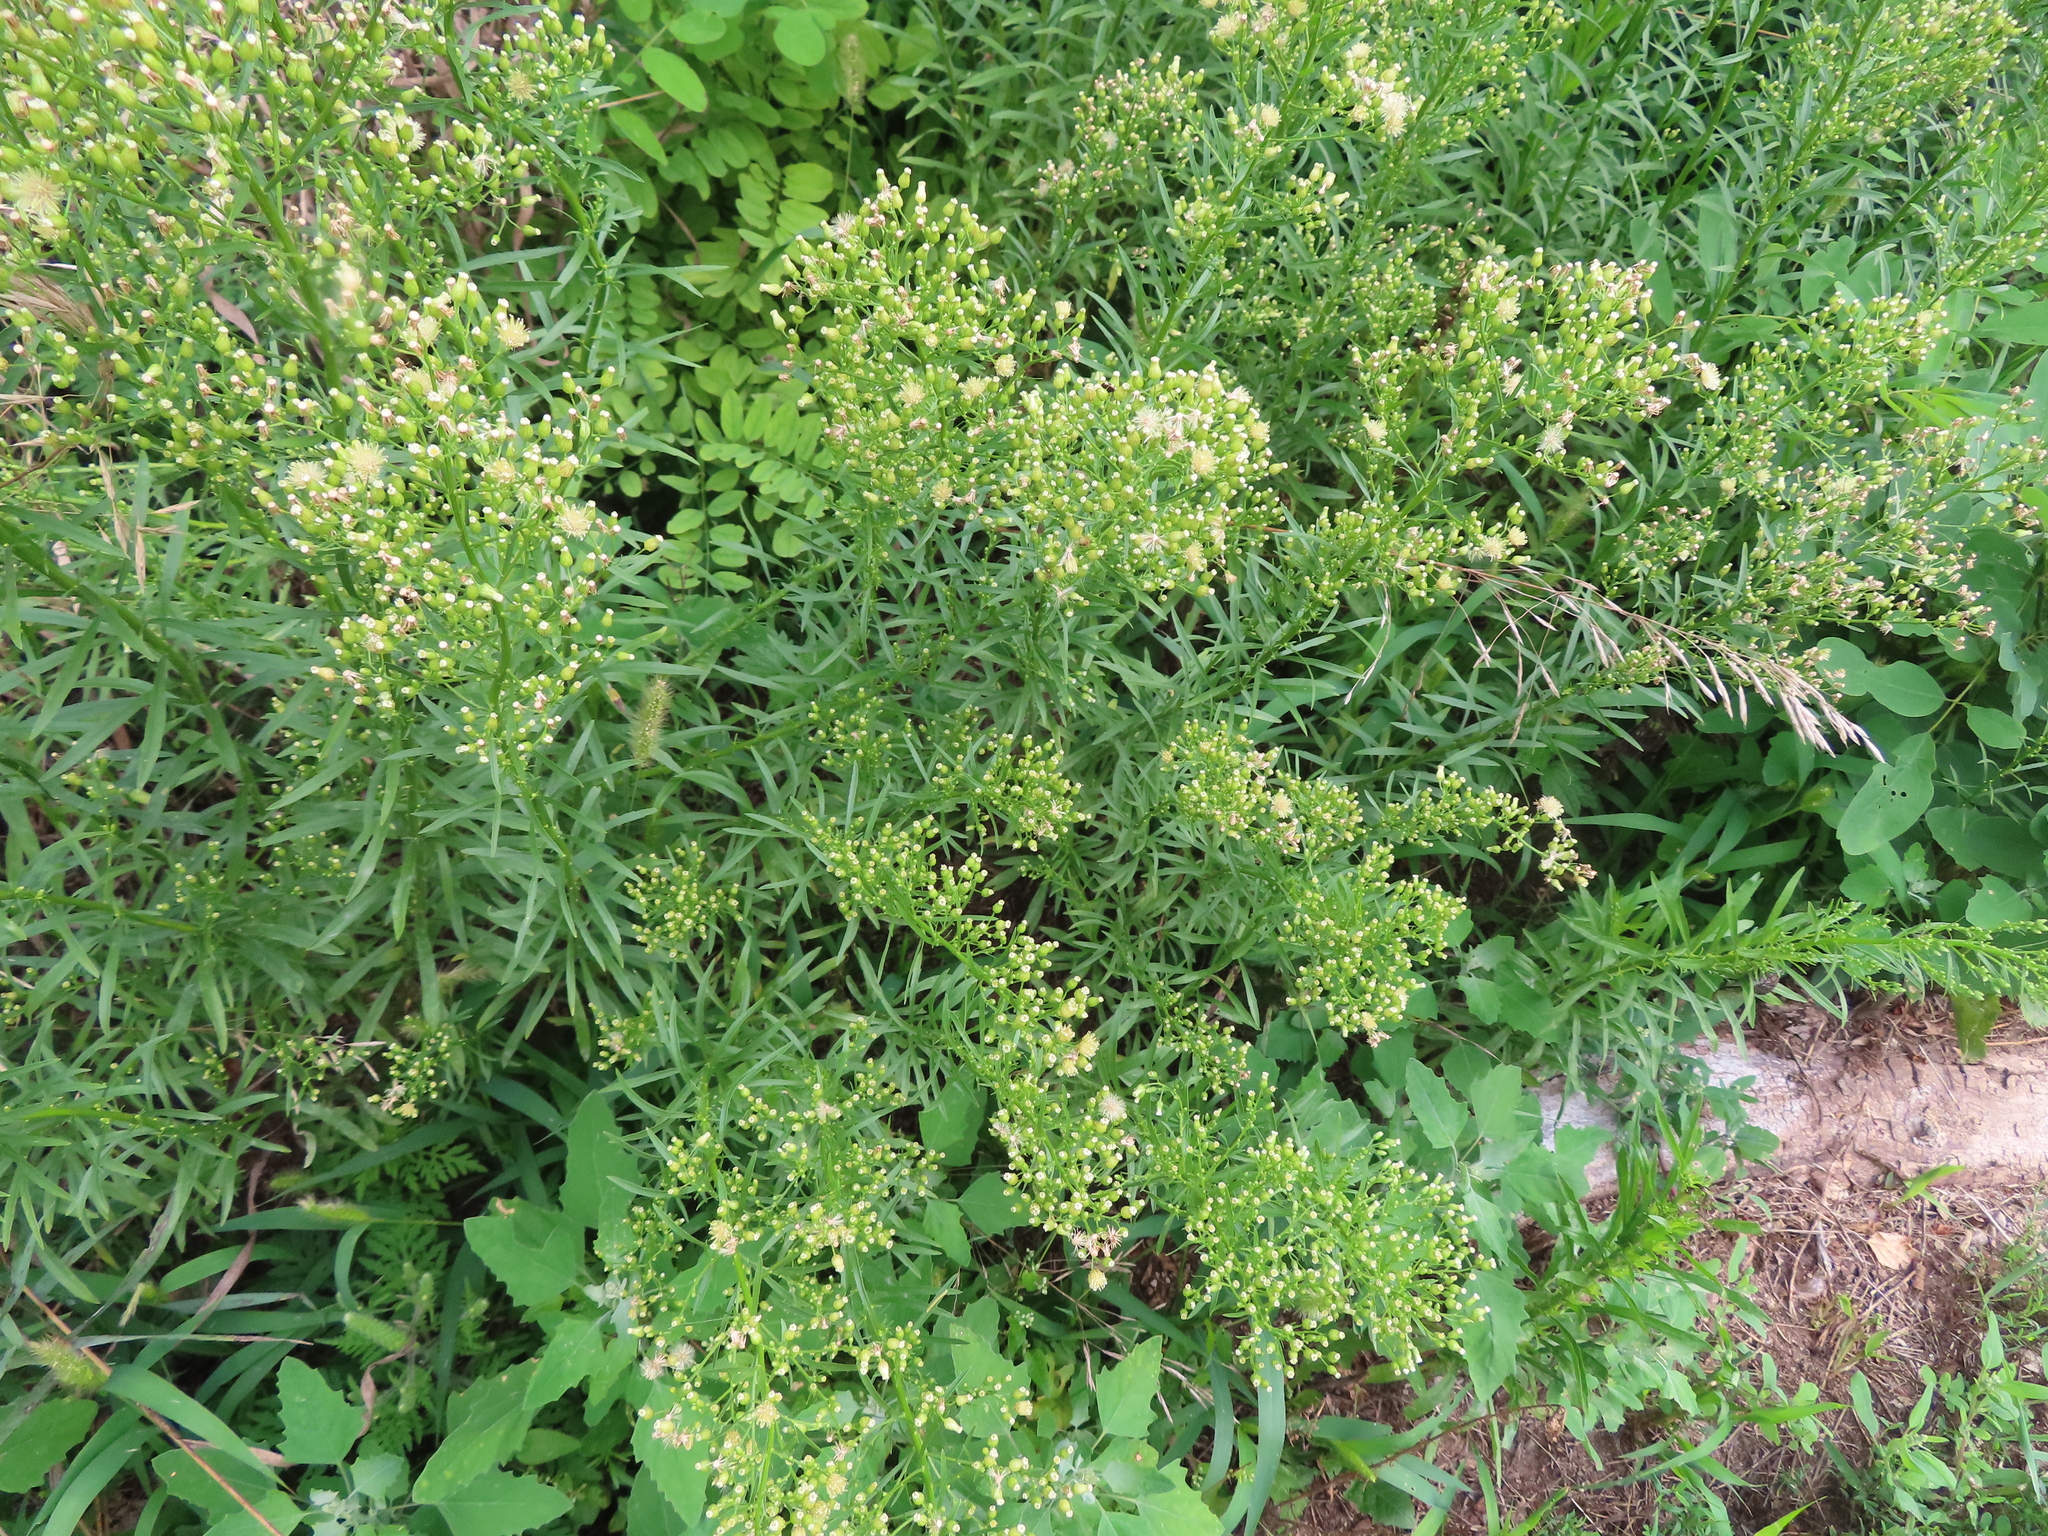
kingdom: Plantae
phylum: Tracheophyta
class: Magnoliopsida
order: Asterales
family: Asteraceae
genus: Erigeron
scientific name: Erigeron canadensis
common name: Canadian fleabane
